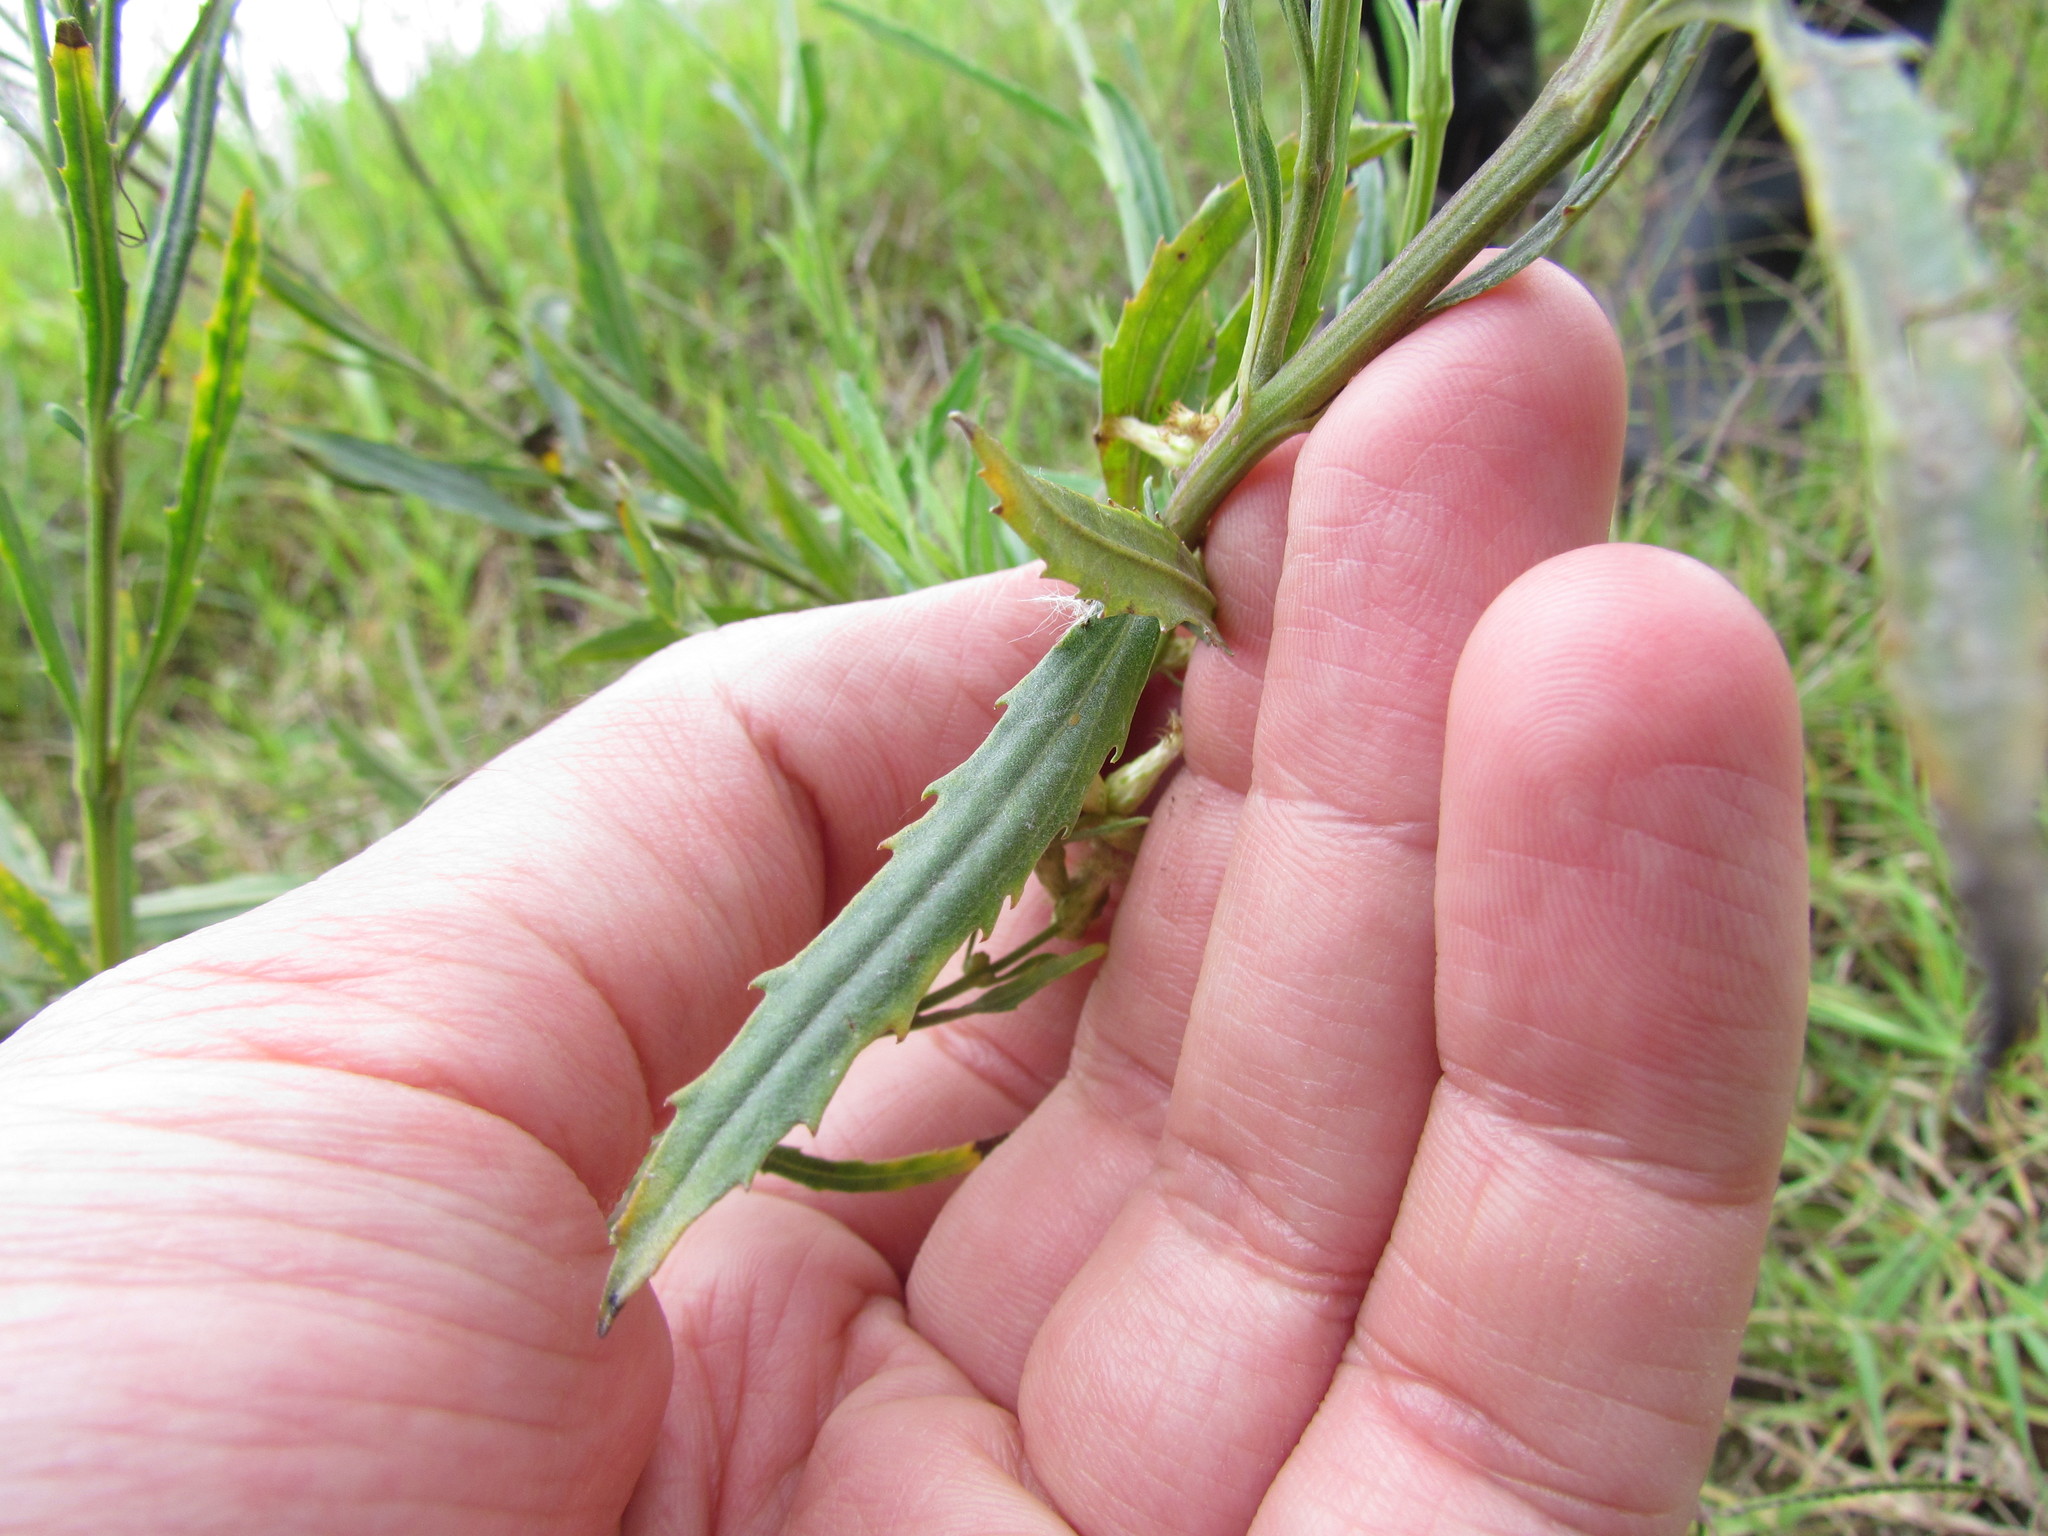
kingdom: Plantae
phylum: Tracheophyta
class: Magnoliopsida
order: Asterales
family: Asteraceae
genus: Baccharis
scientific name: Baccharis spicata
